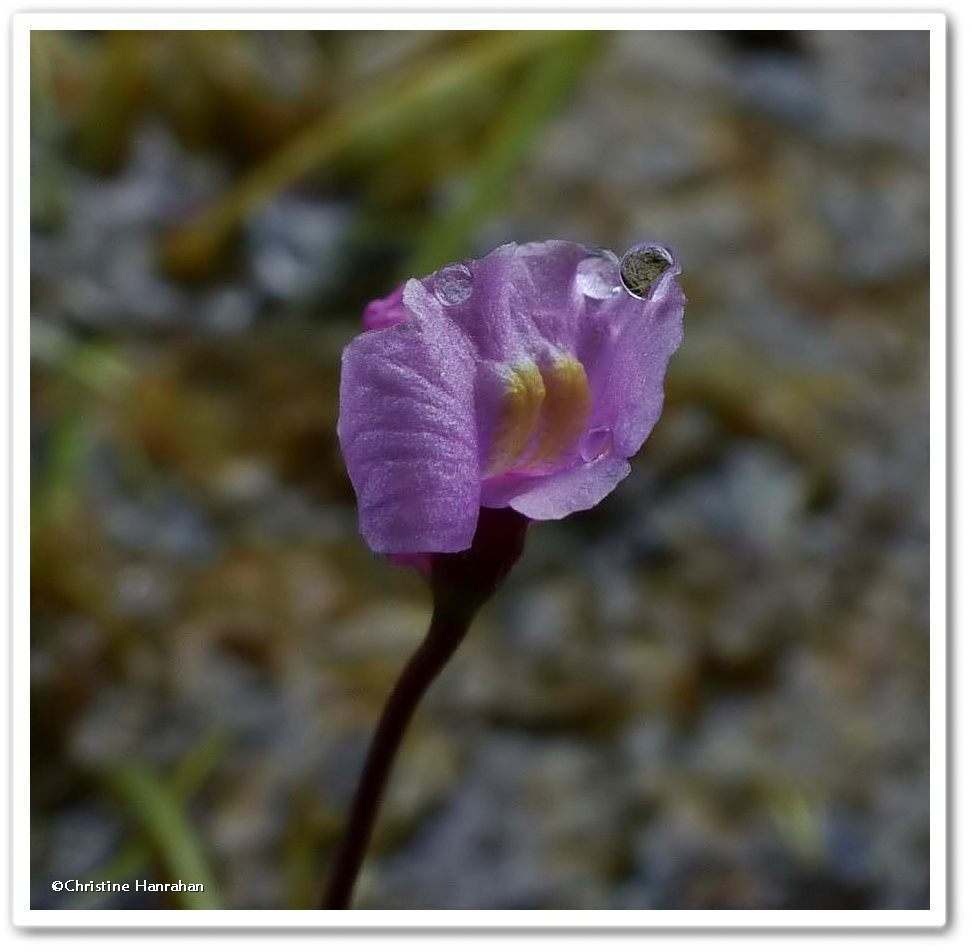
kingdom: Plantae
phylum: Tracheophyta
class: Magnoliopsida
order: Lamiales
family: Lentibulariaceae
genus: Utricularia
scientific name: Utricularia resupinata
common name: Northeastern bladderwort
